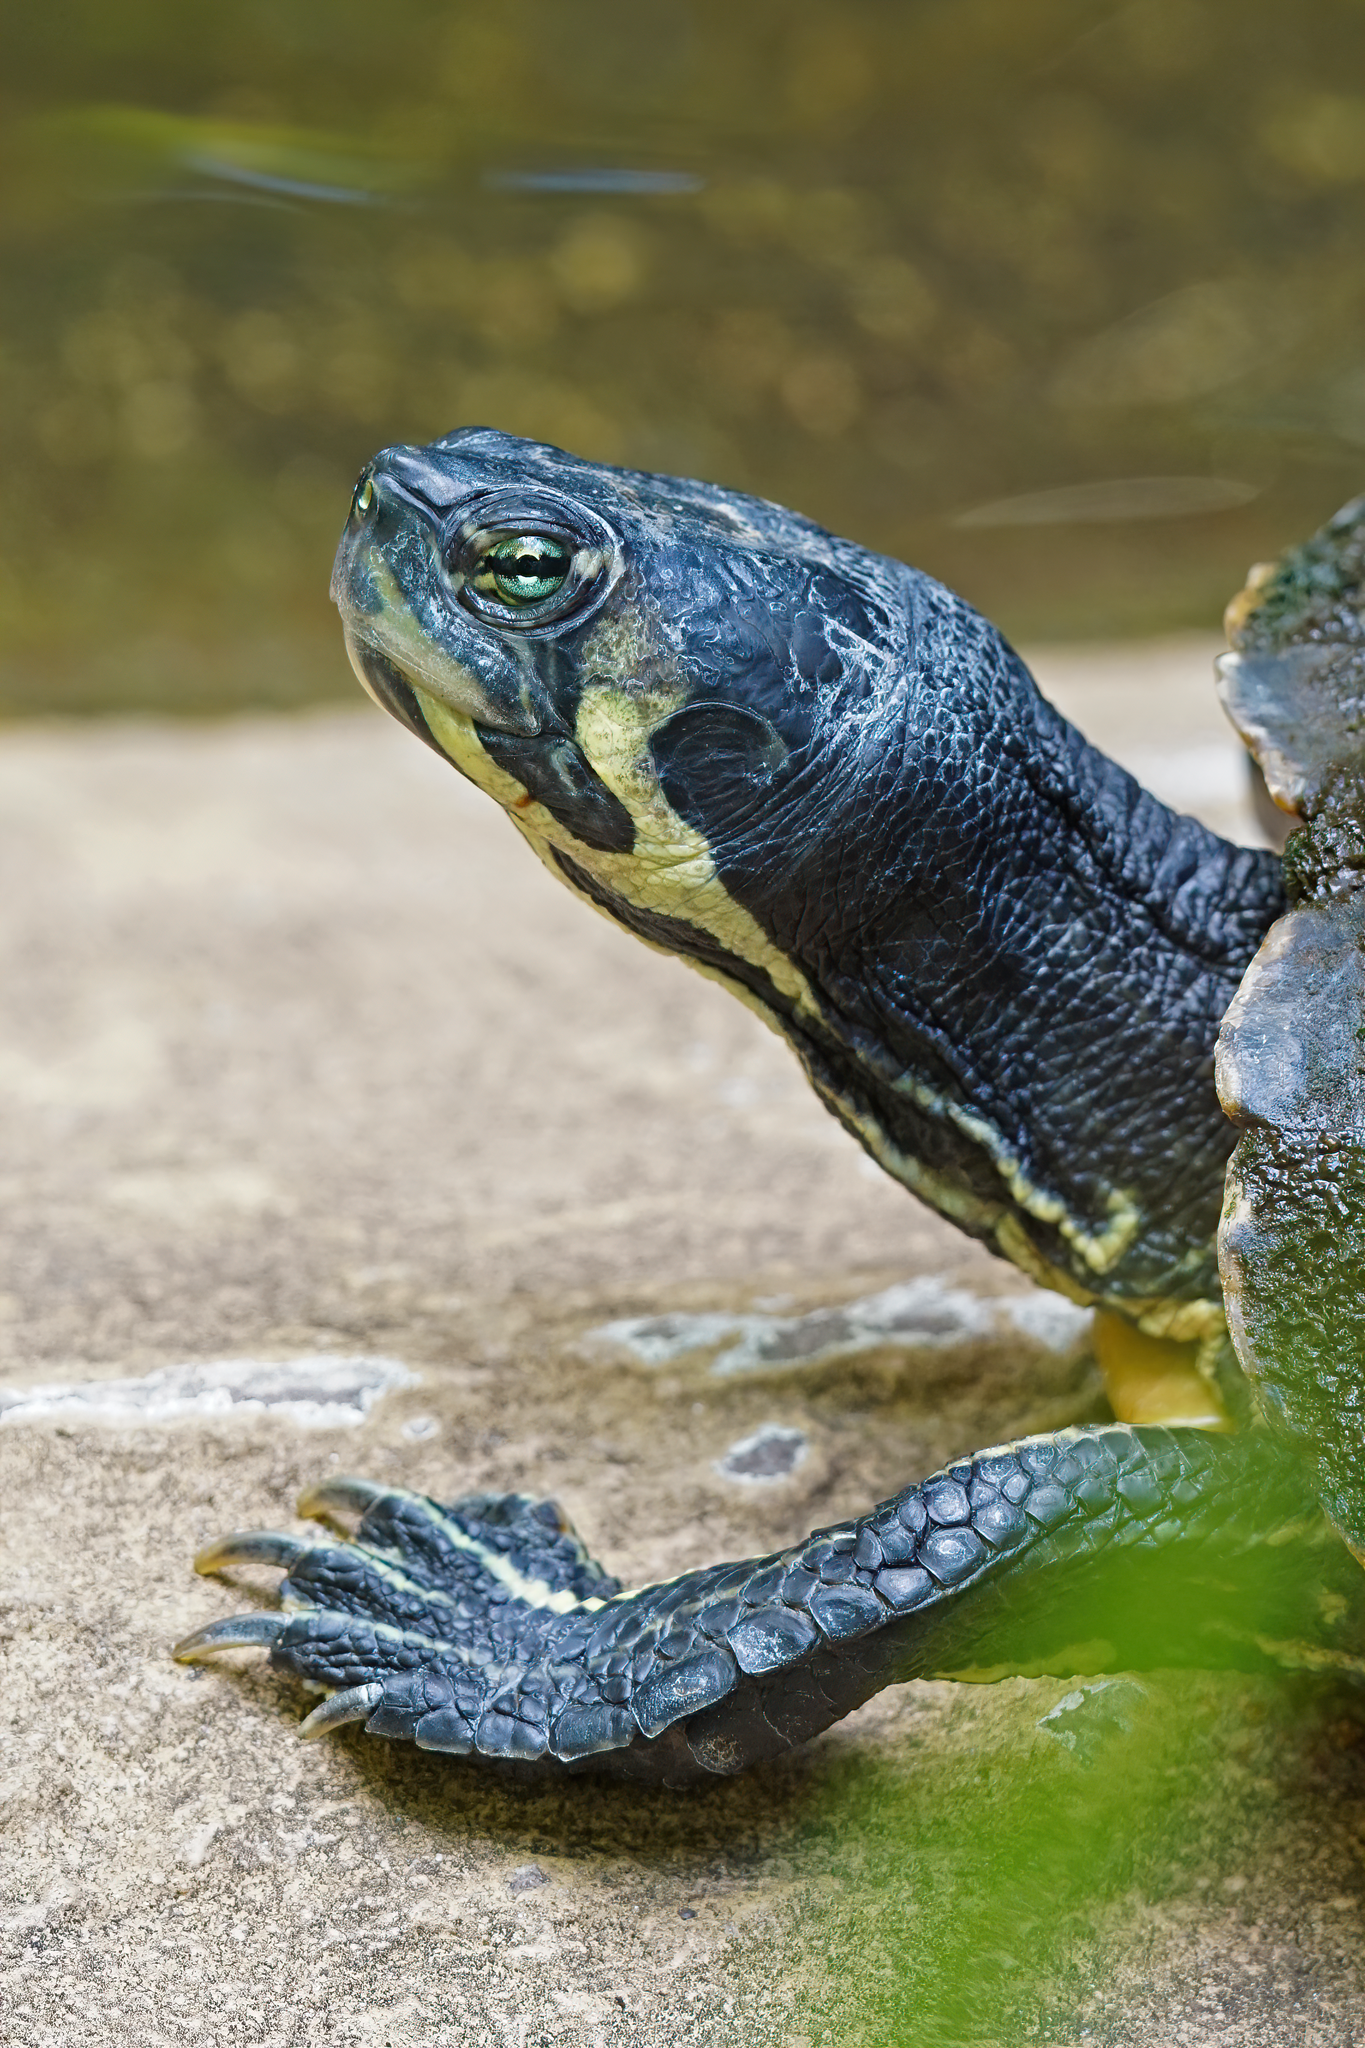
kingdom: Animalia
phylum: Chordata
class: Testudines
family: Emydidae
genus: Trachemys
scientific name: Trachemys scripta
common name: Slider
